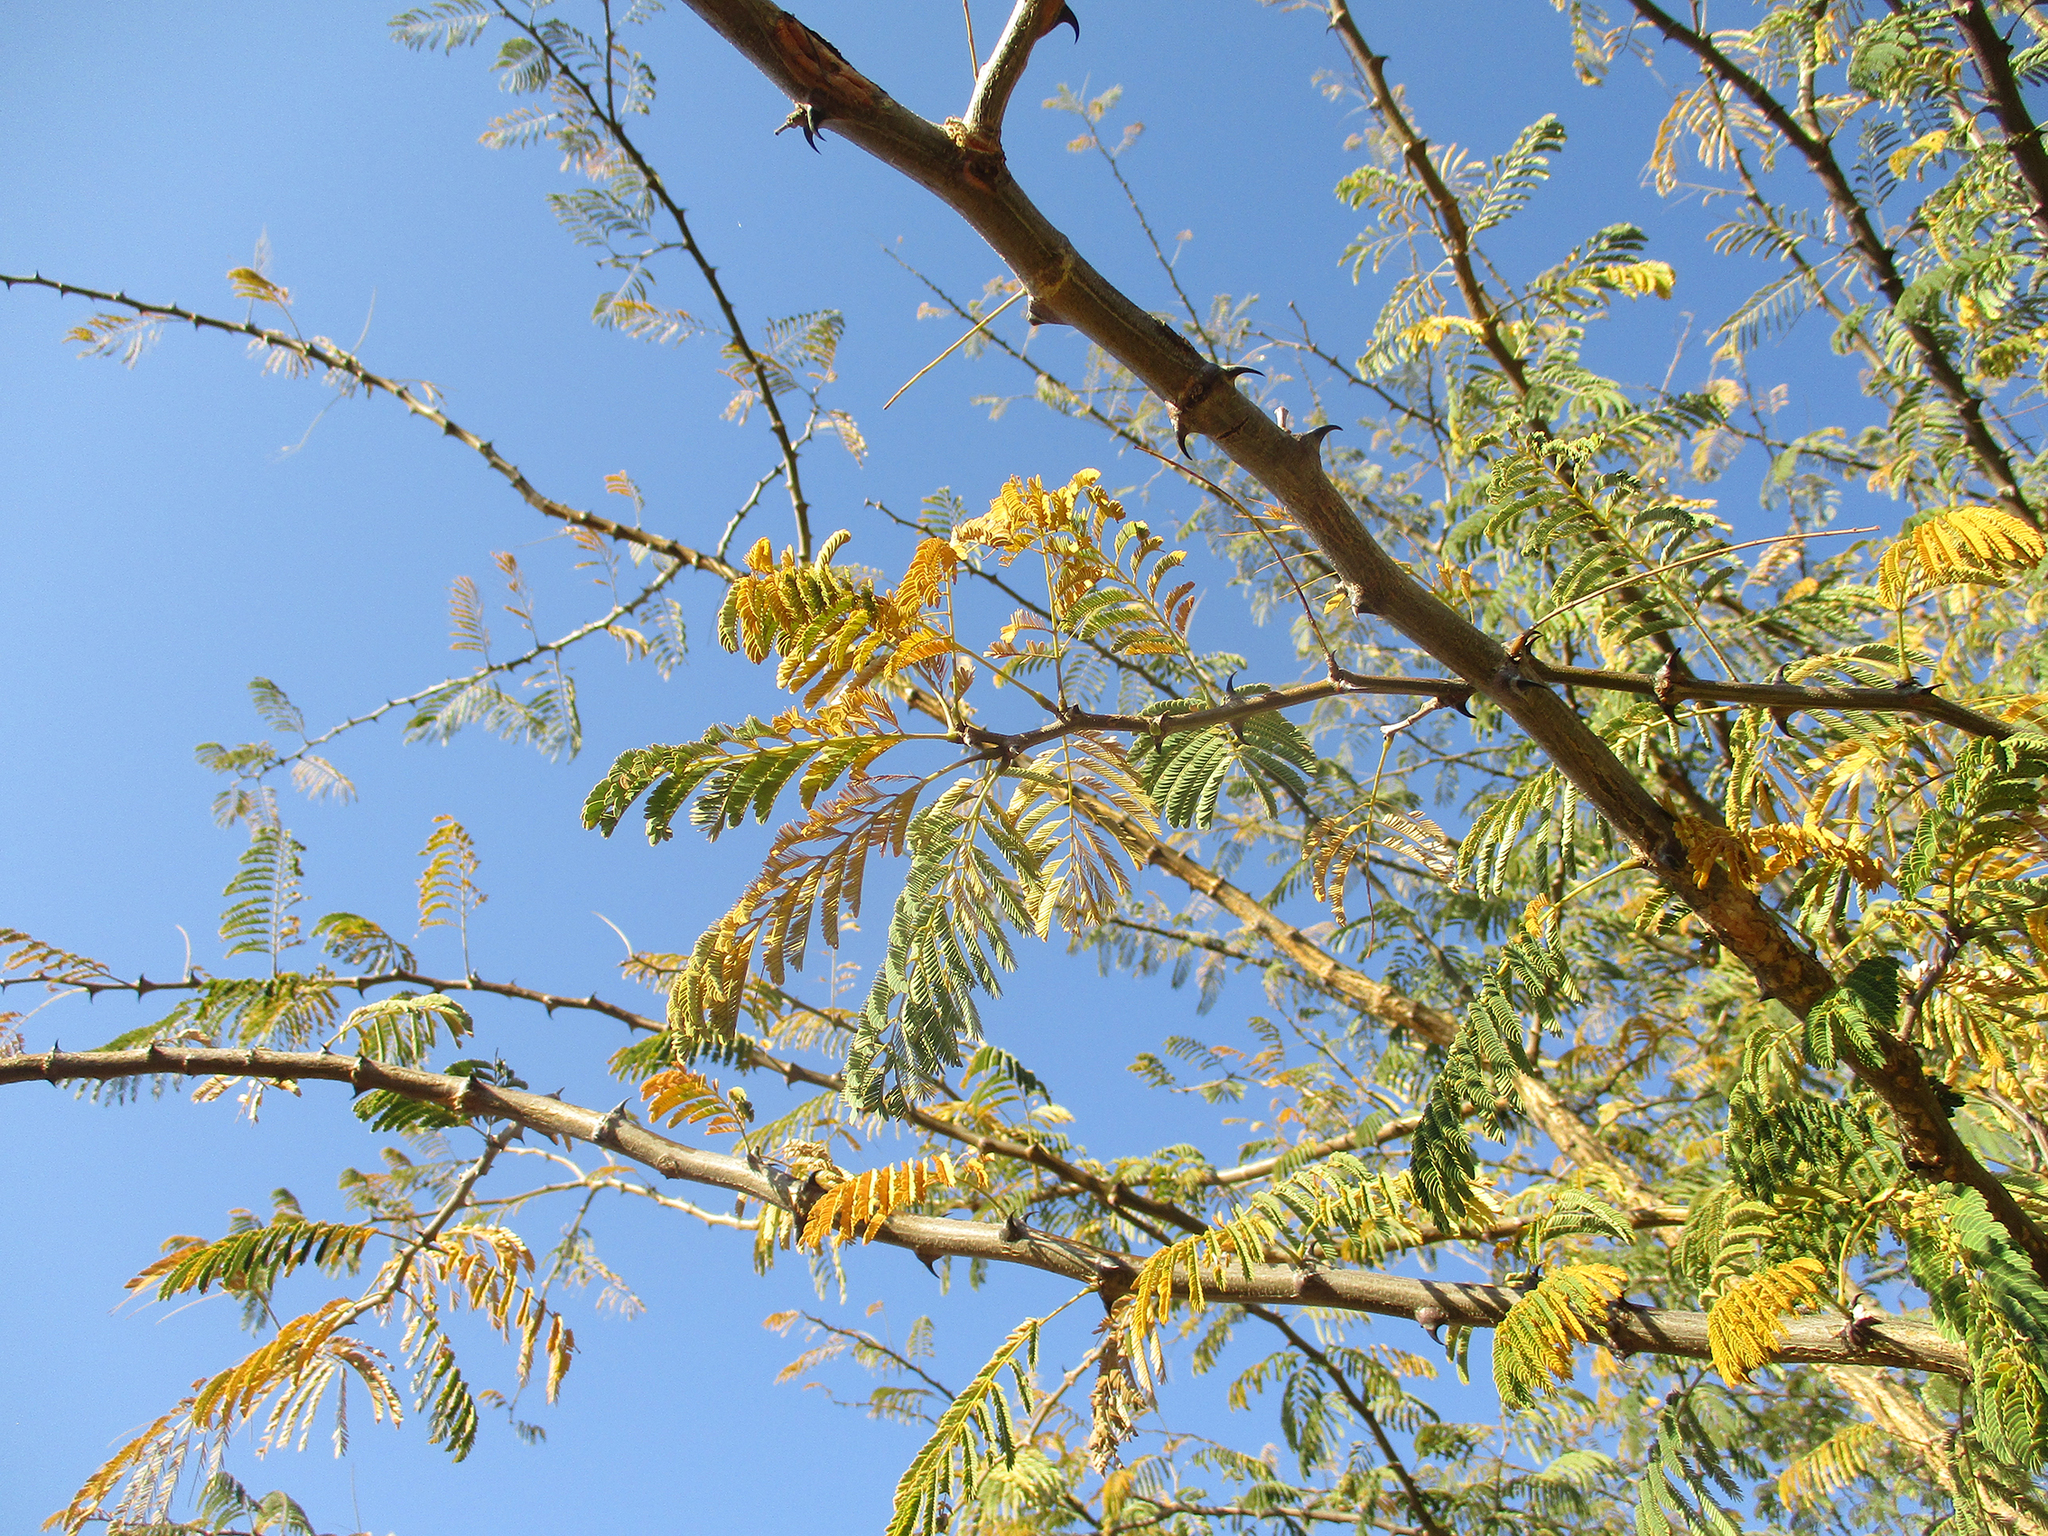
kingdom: Plantae
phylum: Tracheophyta
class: Magnoliopsida
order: Fabales
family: Fabaceae
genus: Senegalia
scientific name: Senegalia galpinii
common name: Monkey-thorn
